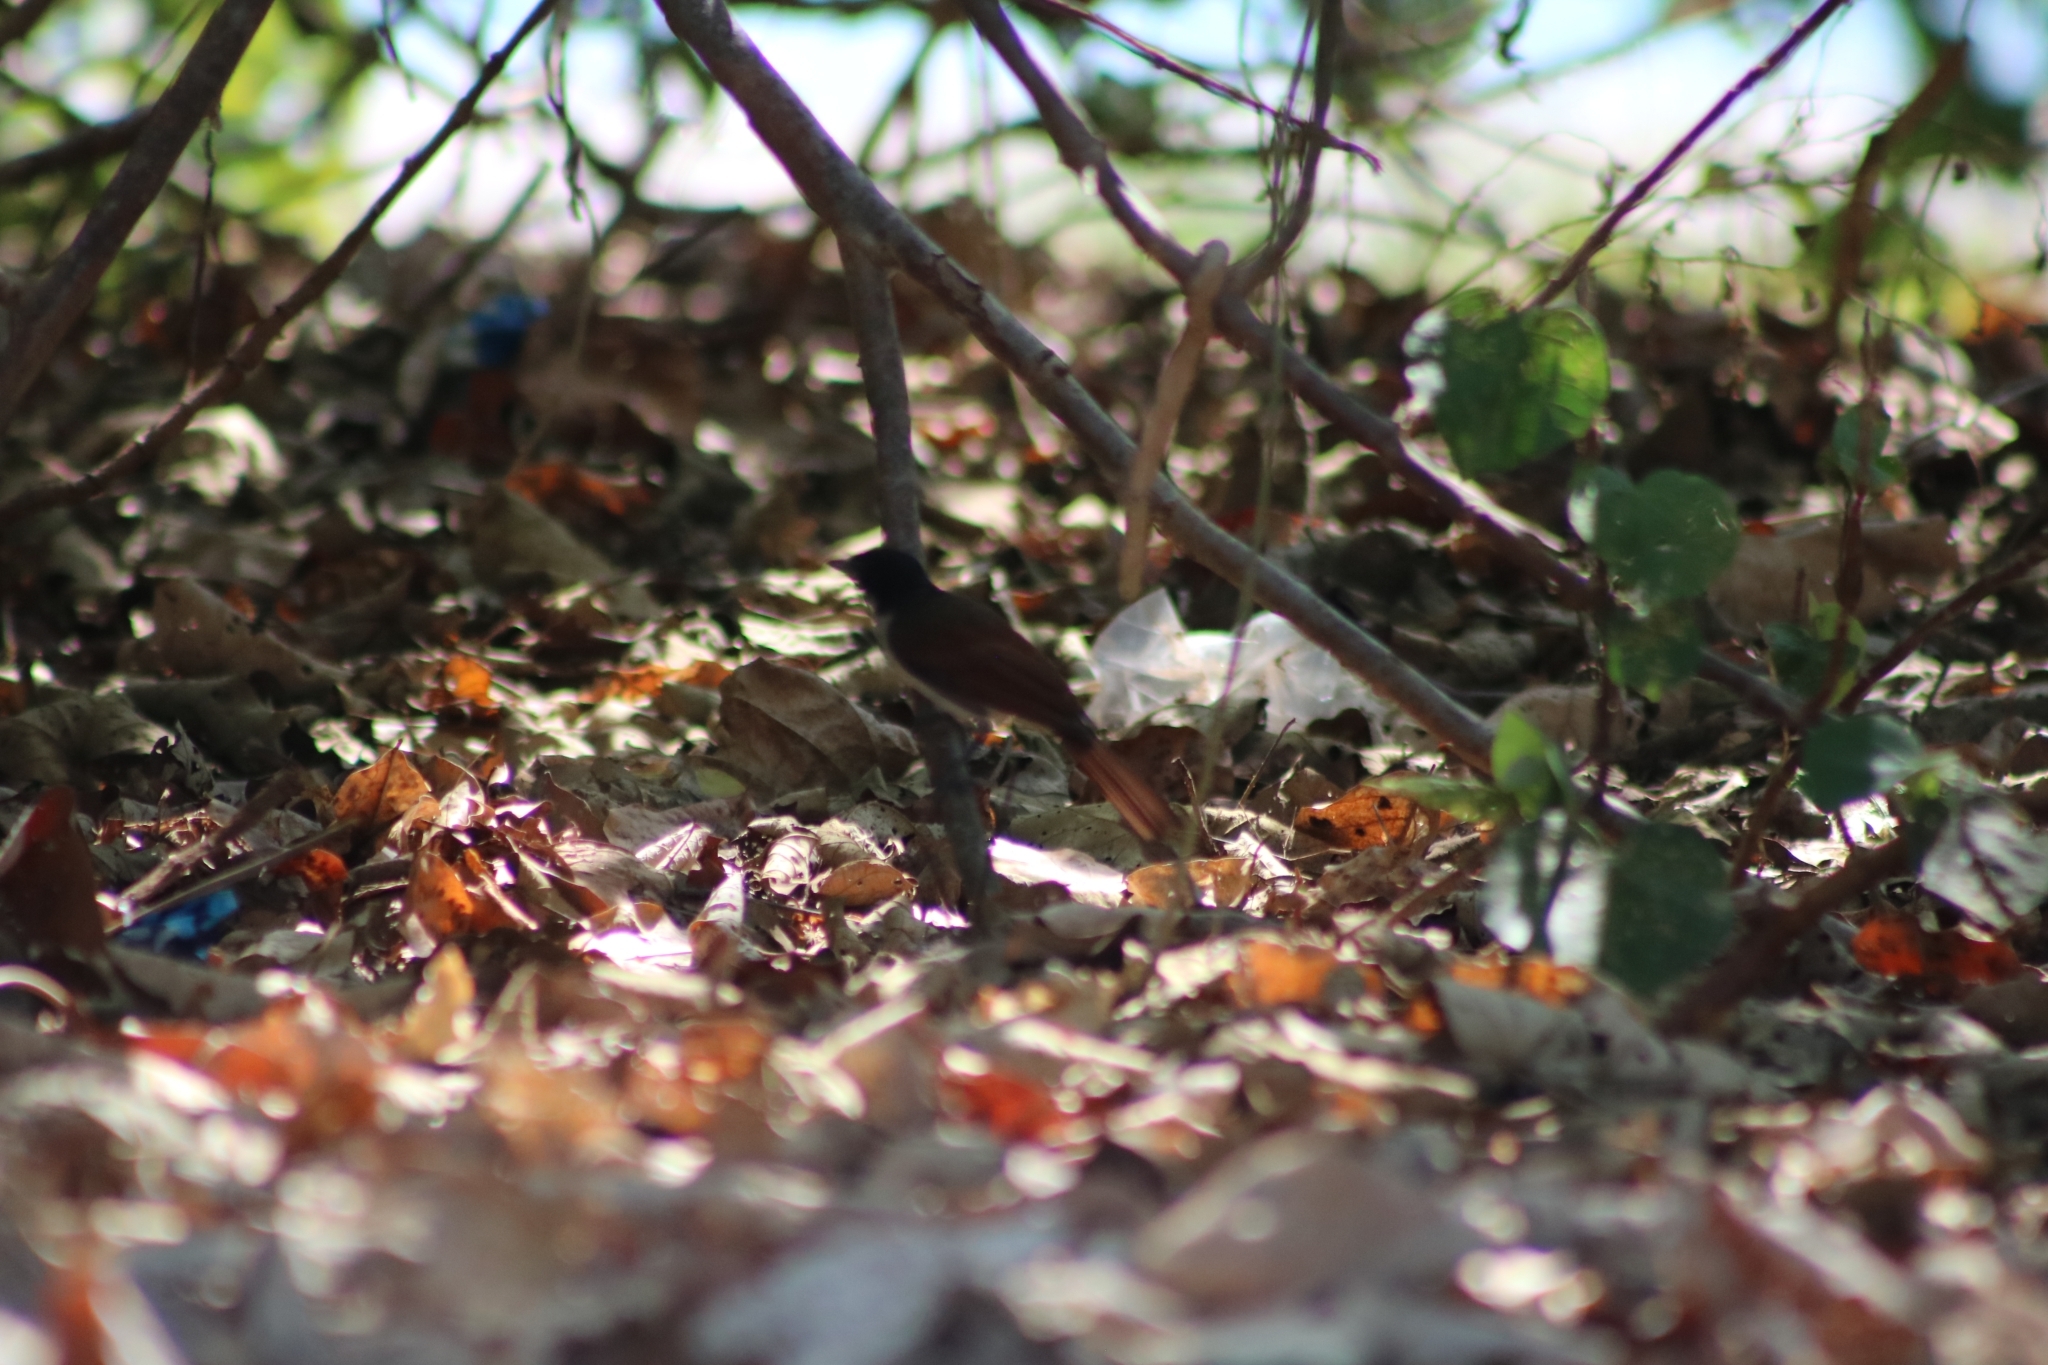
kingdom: Animalia
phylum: Chordata
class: Aves
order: Passeriformes
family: Monarchidae
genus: Myiagra
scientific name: Myiagra alecto
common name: Shining flycatcher
